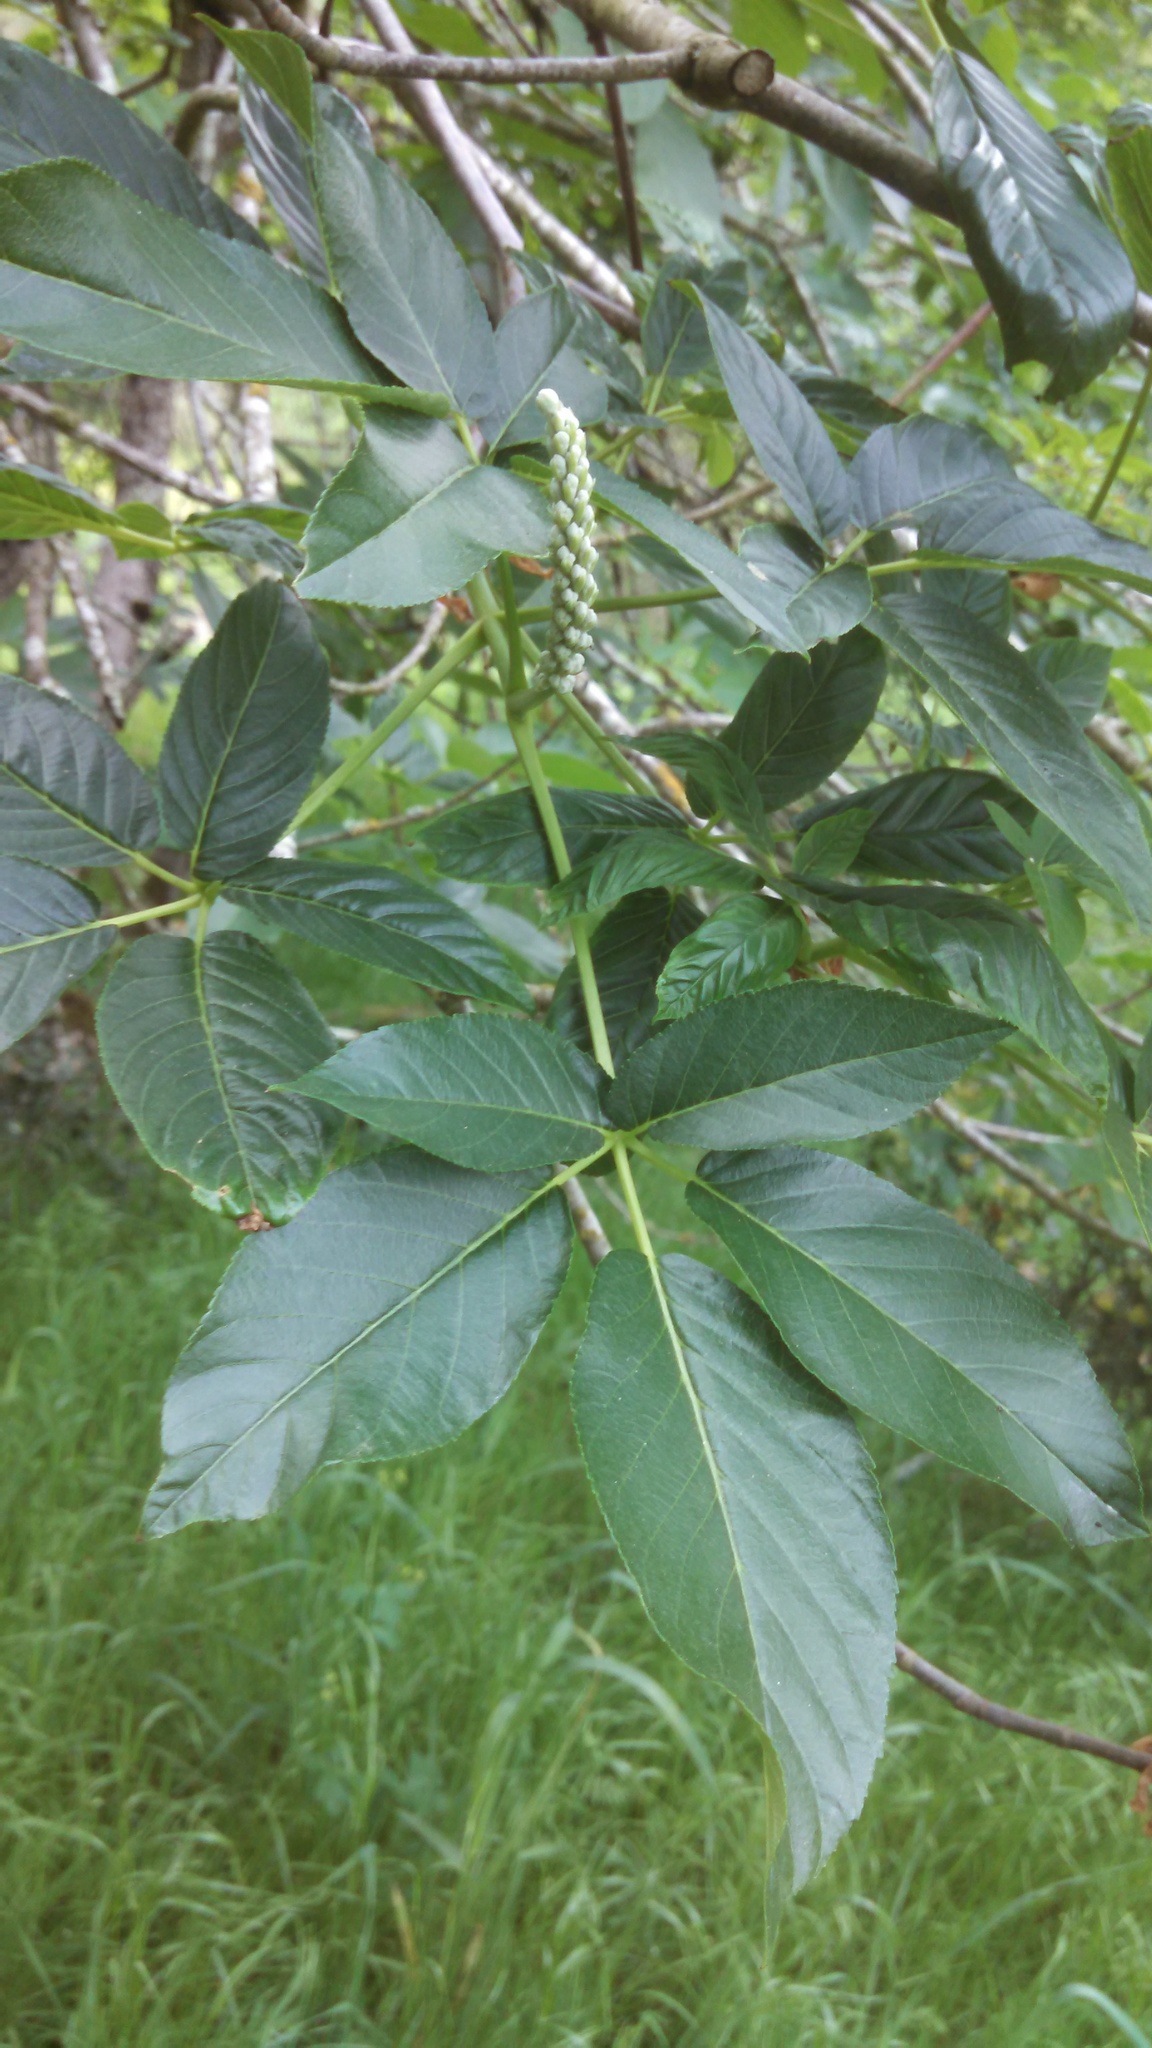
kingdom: Plantae
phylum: Tracheophyta
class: Magnoliopsida
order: Sapindales
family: Sapindaceae
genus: Aesculus
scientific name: Aesculus californica
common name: California buckeye
